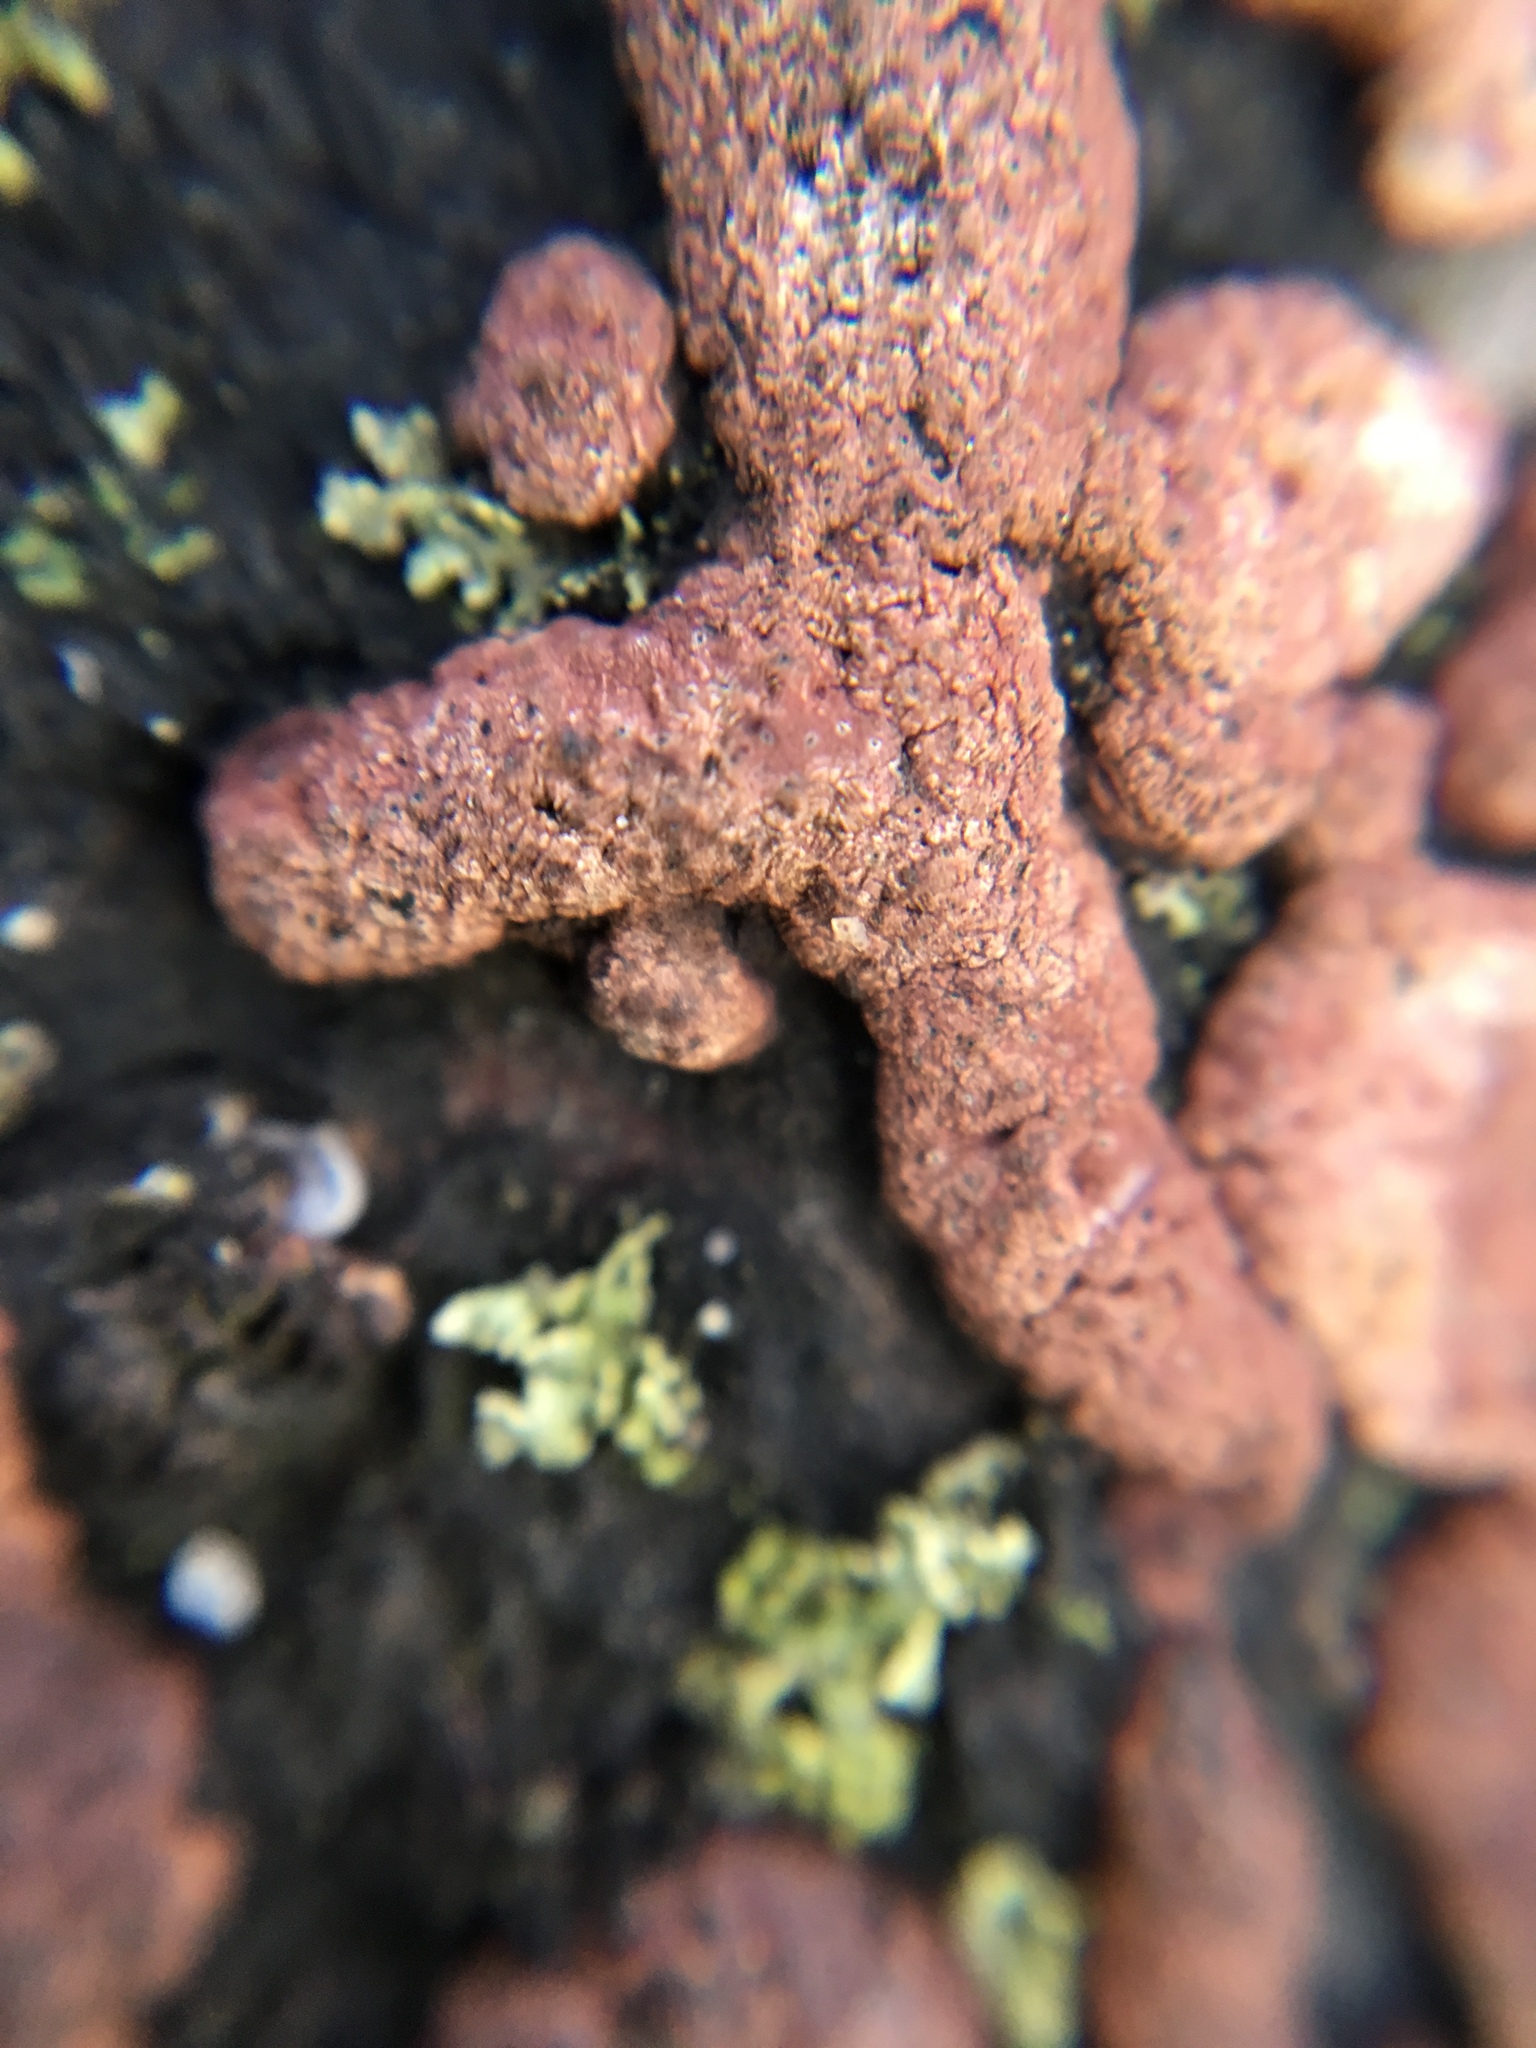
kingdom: Fungi
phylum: Ascomycota
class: Sordariomycetes
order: Xylariales
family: Hypoxylaceae
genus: Hypoxylon
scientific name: Hypoxylon rubiginosum
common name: Rusty woodwart
